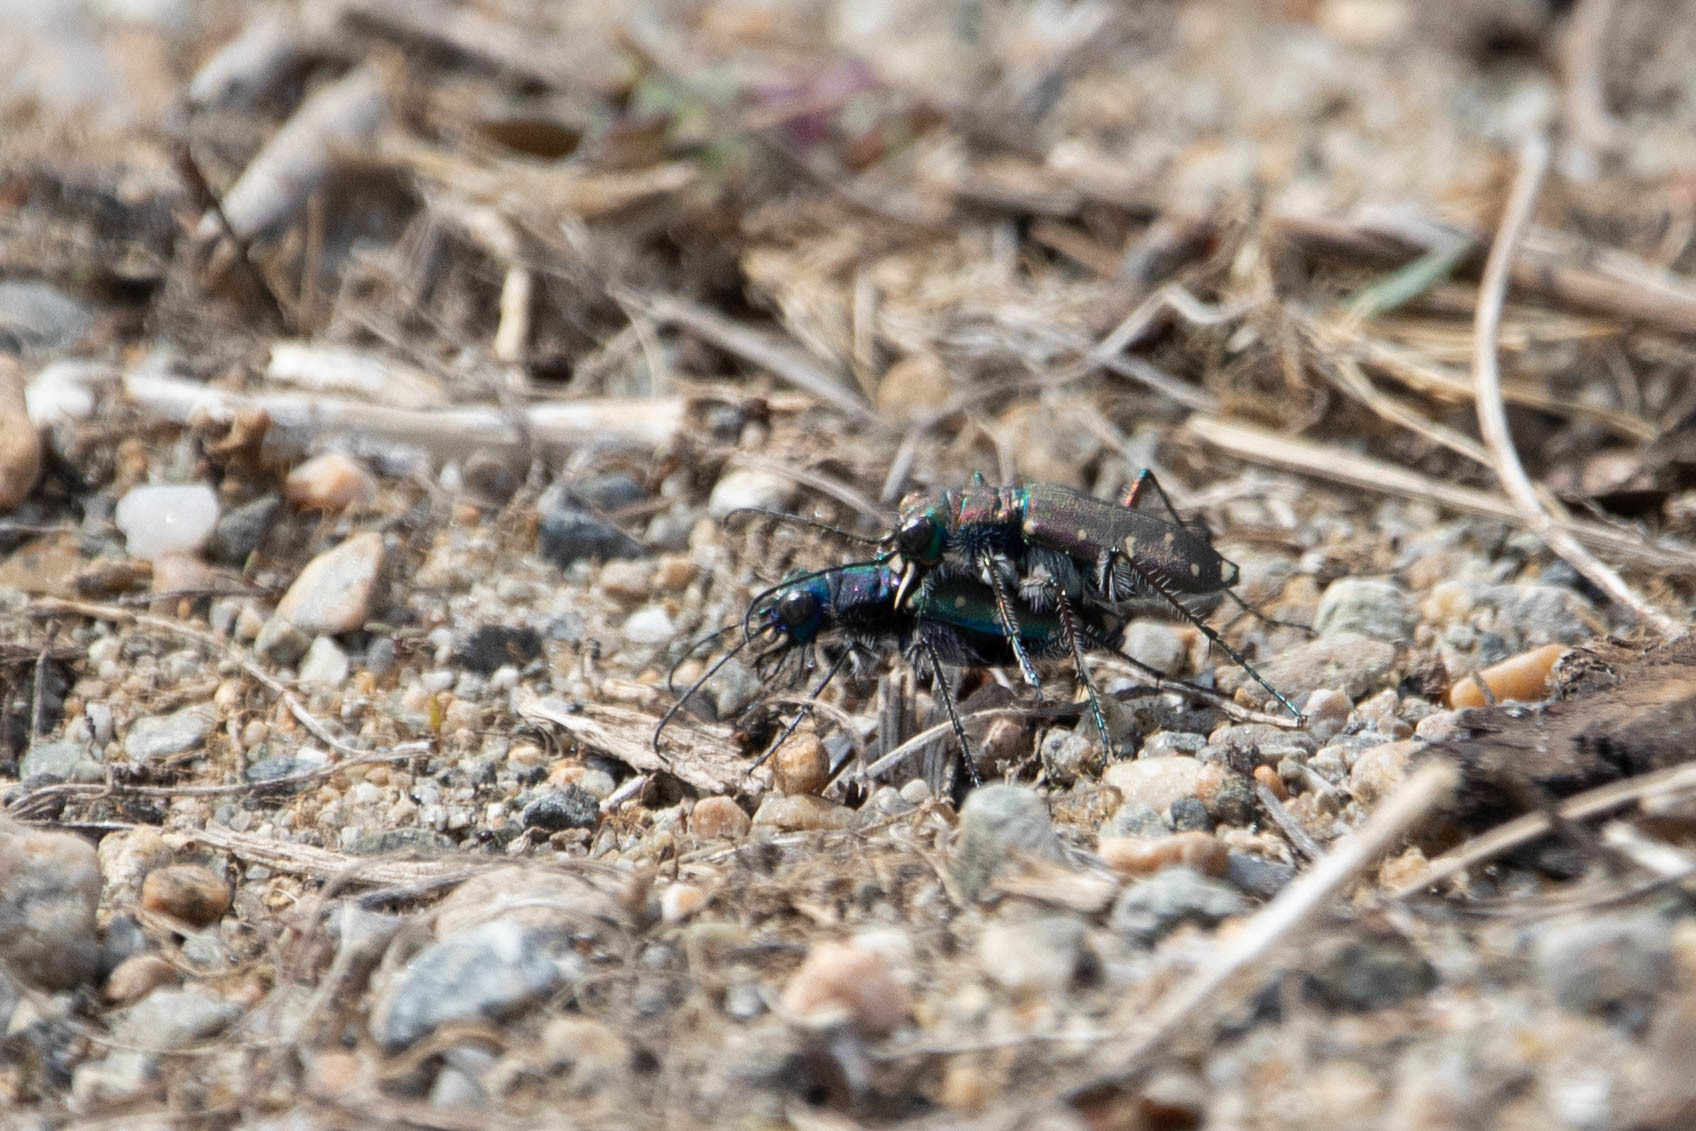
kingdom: Animalia
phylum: Arthropoda
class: Insecta
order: Coleoptera
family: Carabidae
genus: Cicindela
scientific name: Cicindela oregona
